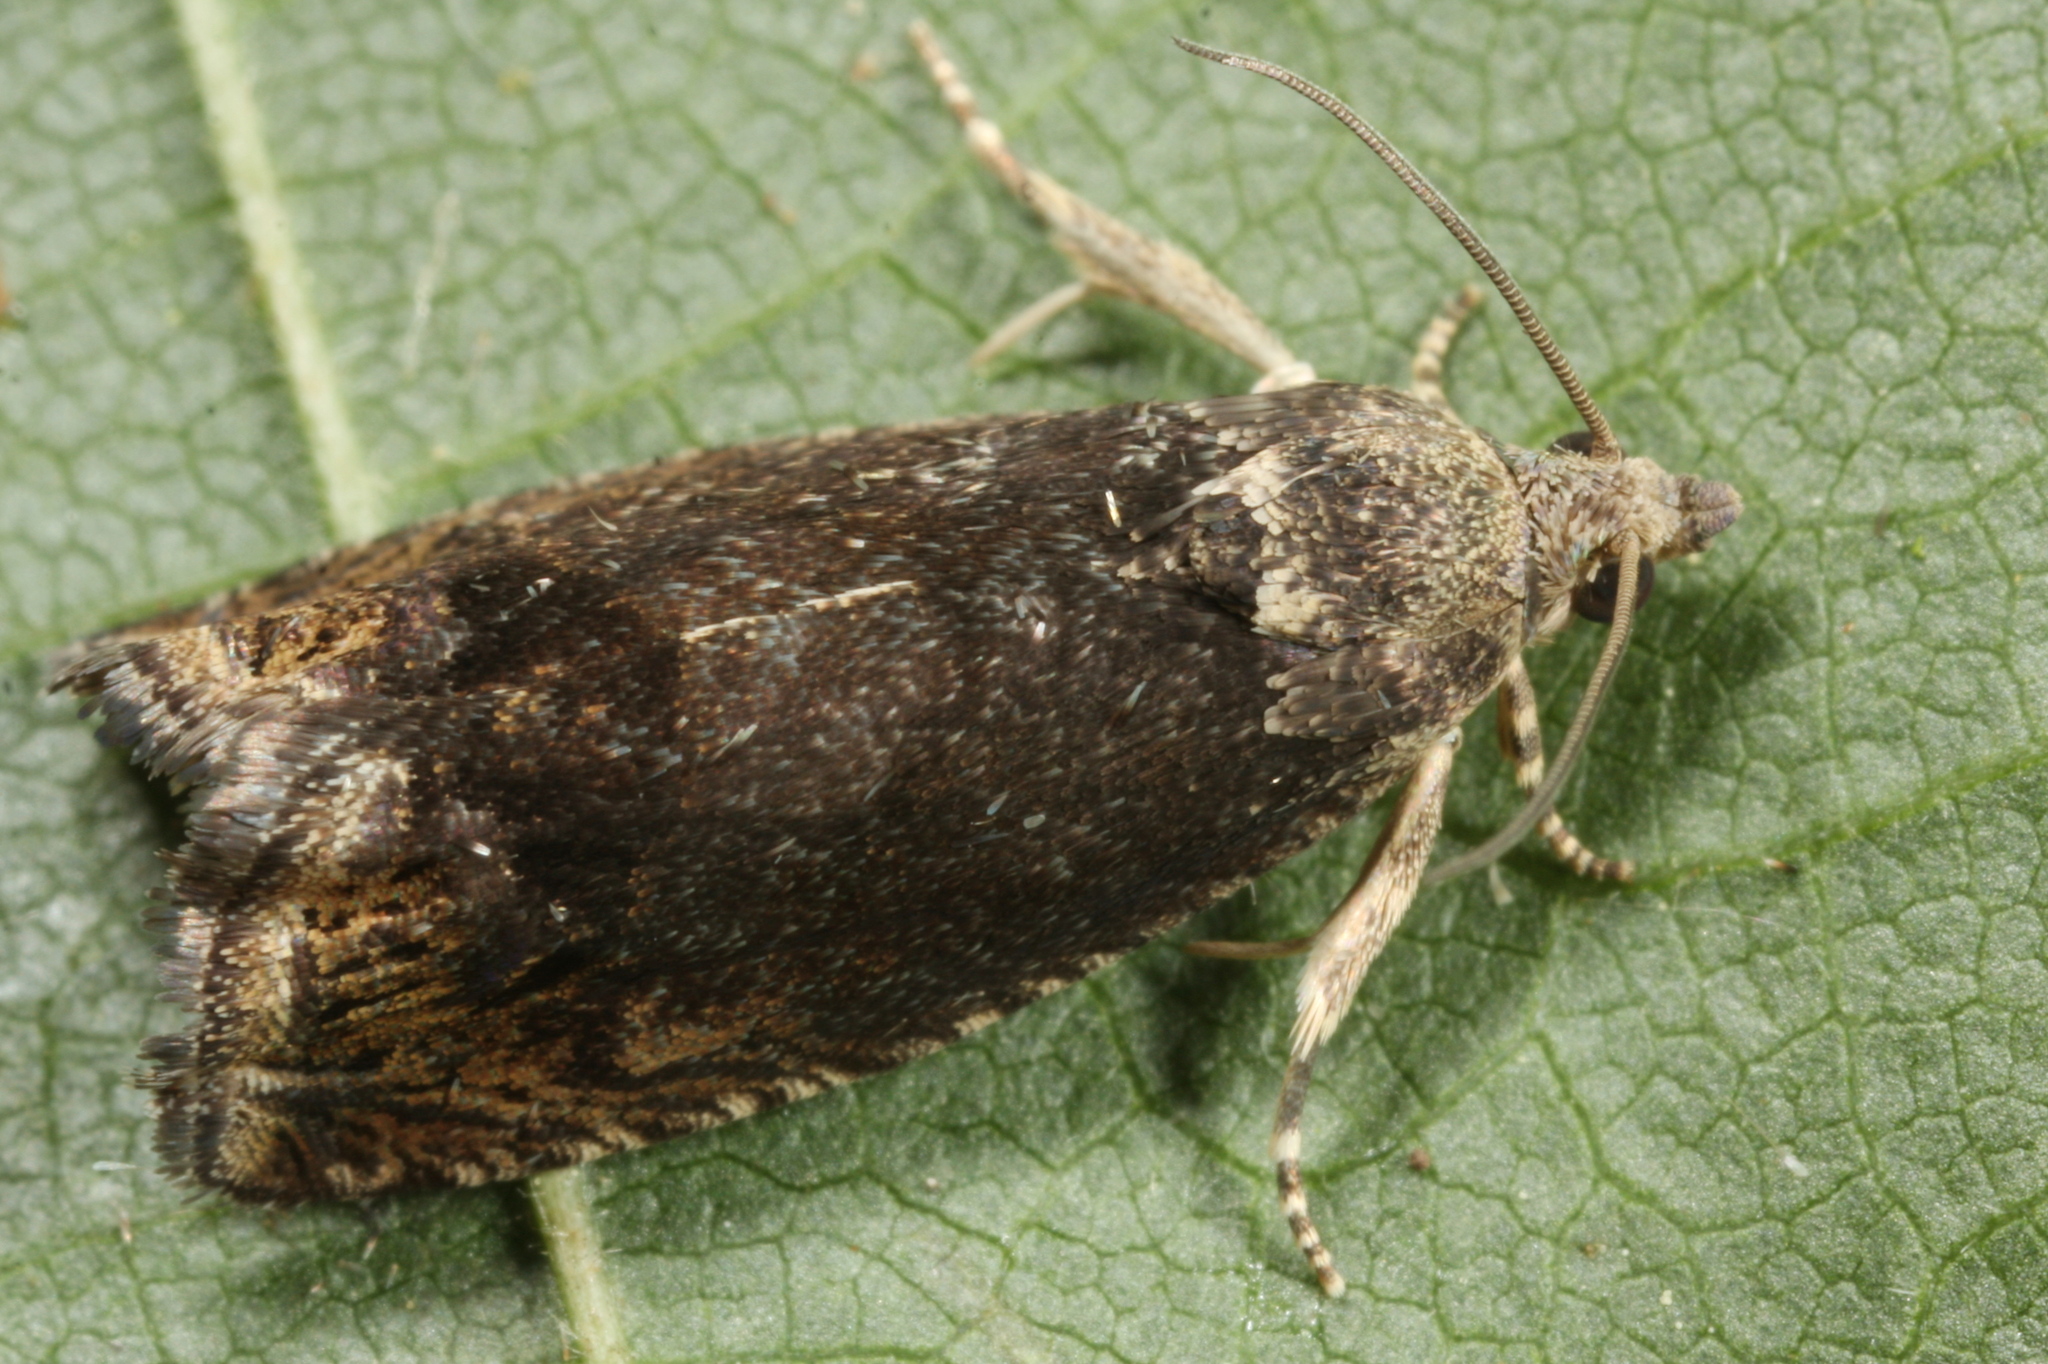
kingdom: Animalia
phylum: Arthropoda
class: Insecta
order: Lepidoptera
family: Tortricidae
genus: Cydia
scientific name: Cydia splendana
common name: De: kastanienwickler, eichenwickler es: oruga de la castaña fr: carpocapse des châtaignes it: cidia o tortrice tardiva delle castagne pt: bichado das castanhas gb: acorn moth, chestnut fruit tortrix
